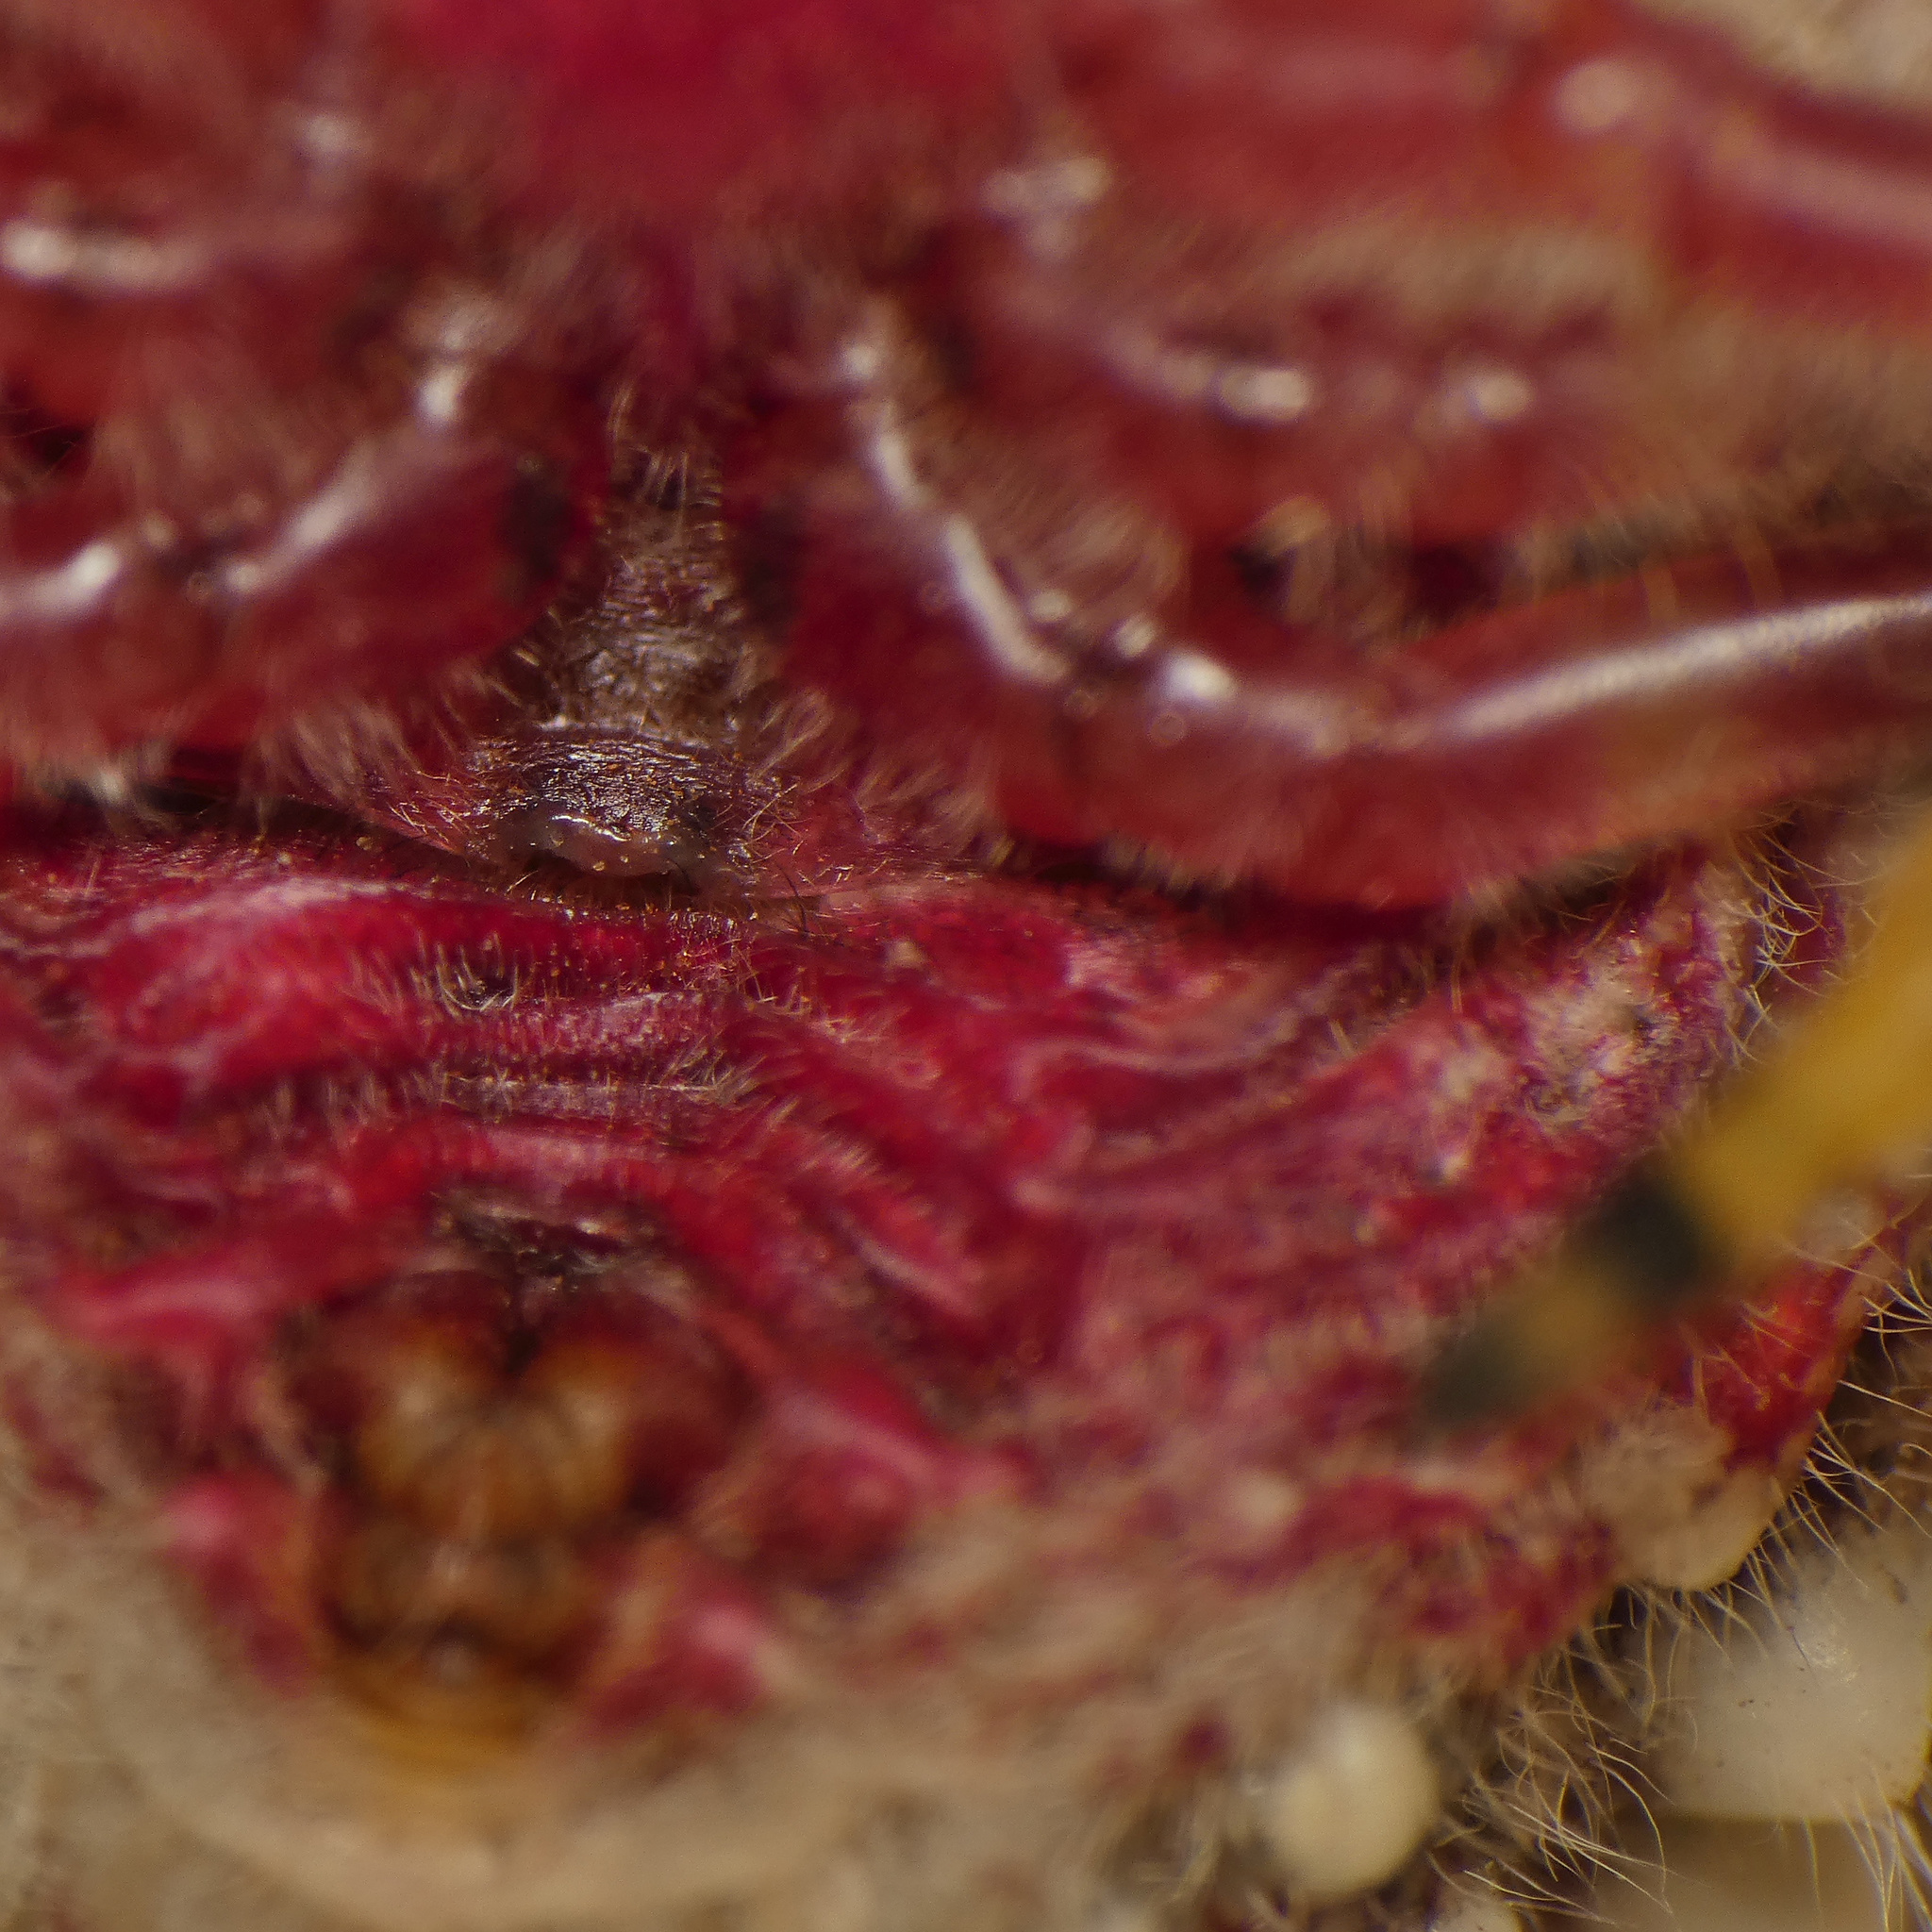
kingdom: Animalia
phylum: Arthropoda
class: Arachnida
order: Araneae
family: Araneidae
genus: Cladomelea
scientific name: Cladomelea longipes
